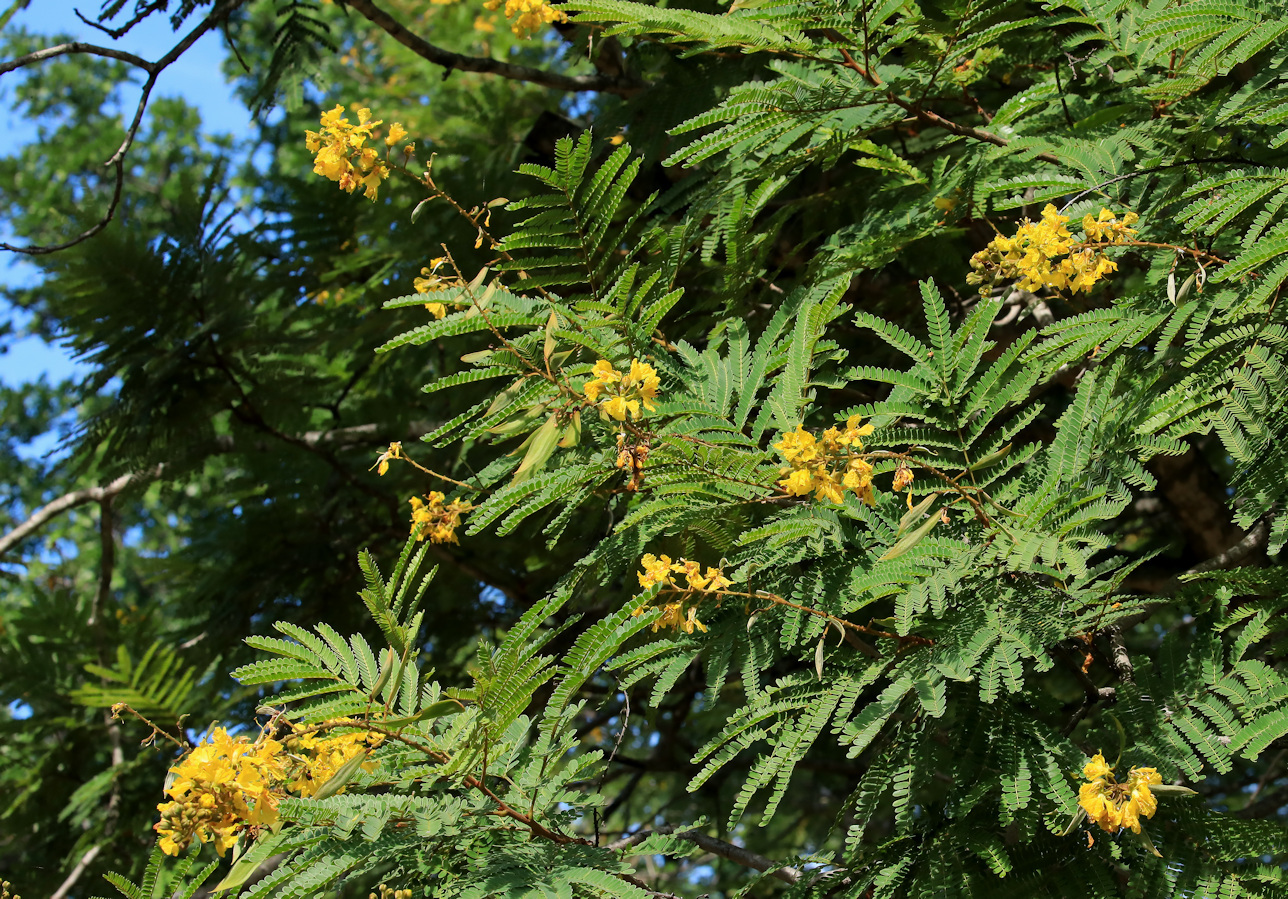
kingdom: Plantae
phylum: Tracheophyta
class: Magnoliopsida
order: Fabales
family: Fabaceae
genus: Peltophorum
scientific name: Peltophorum africanum
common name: African black wattle
